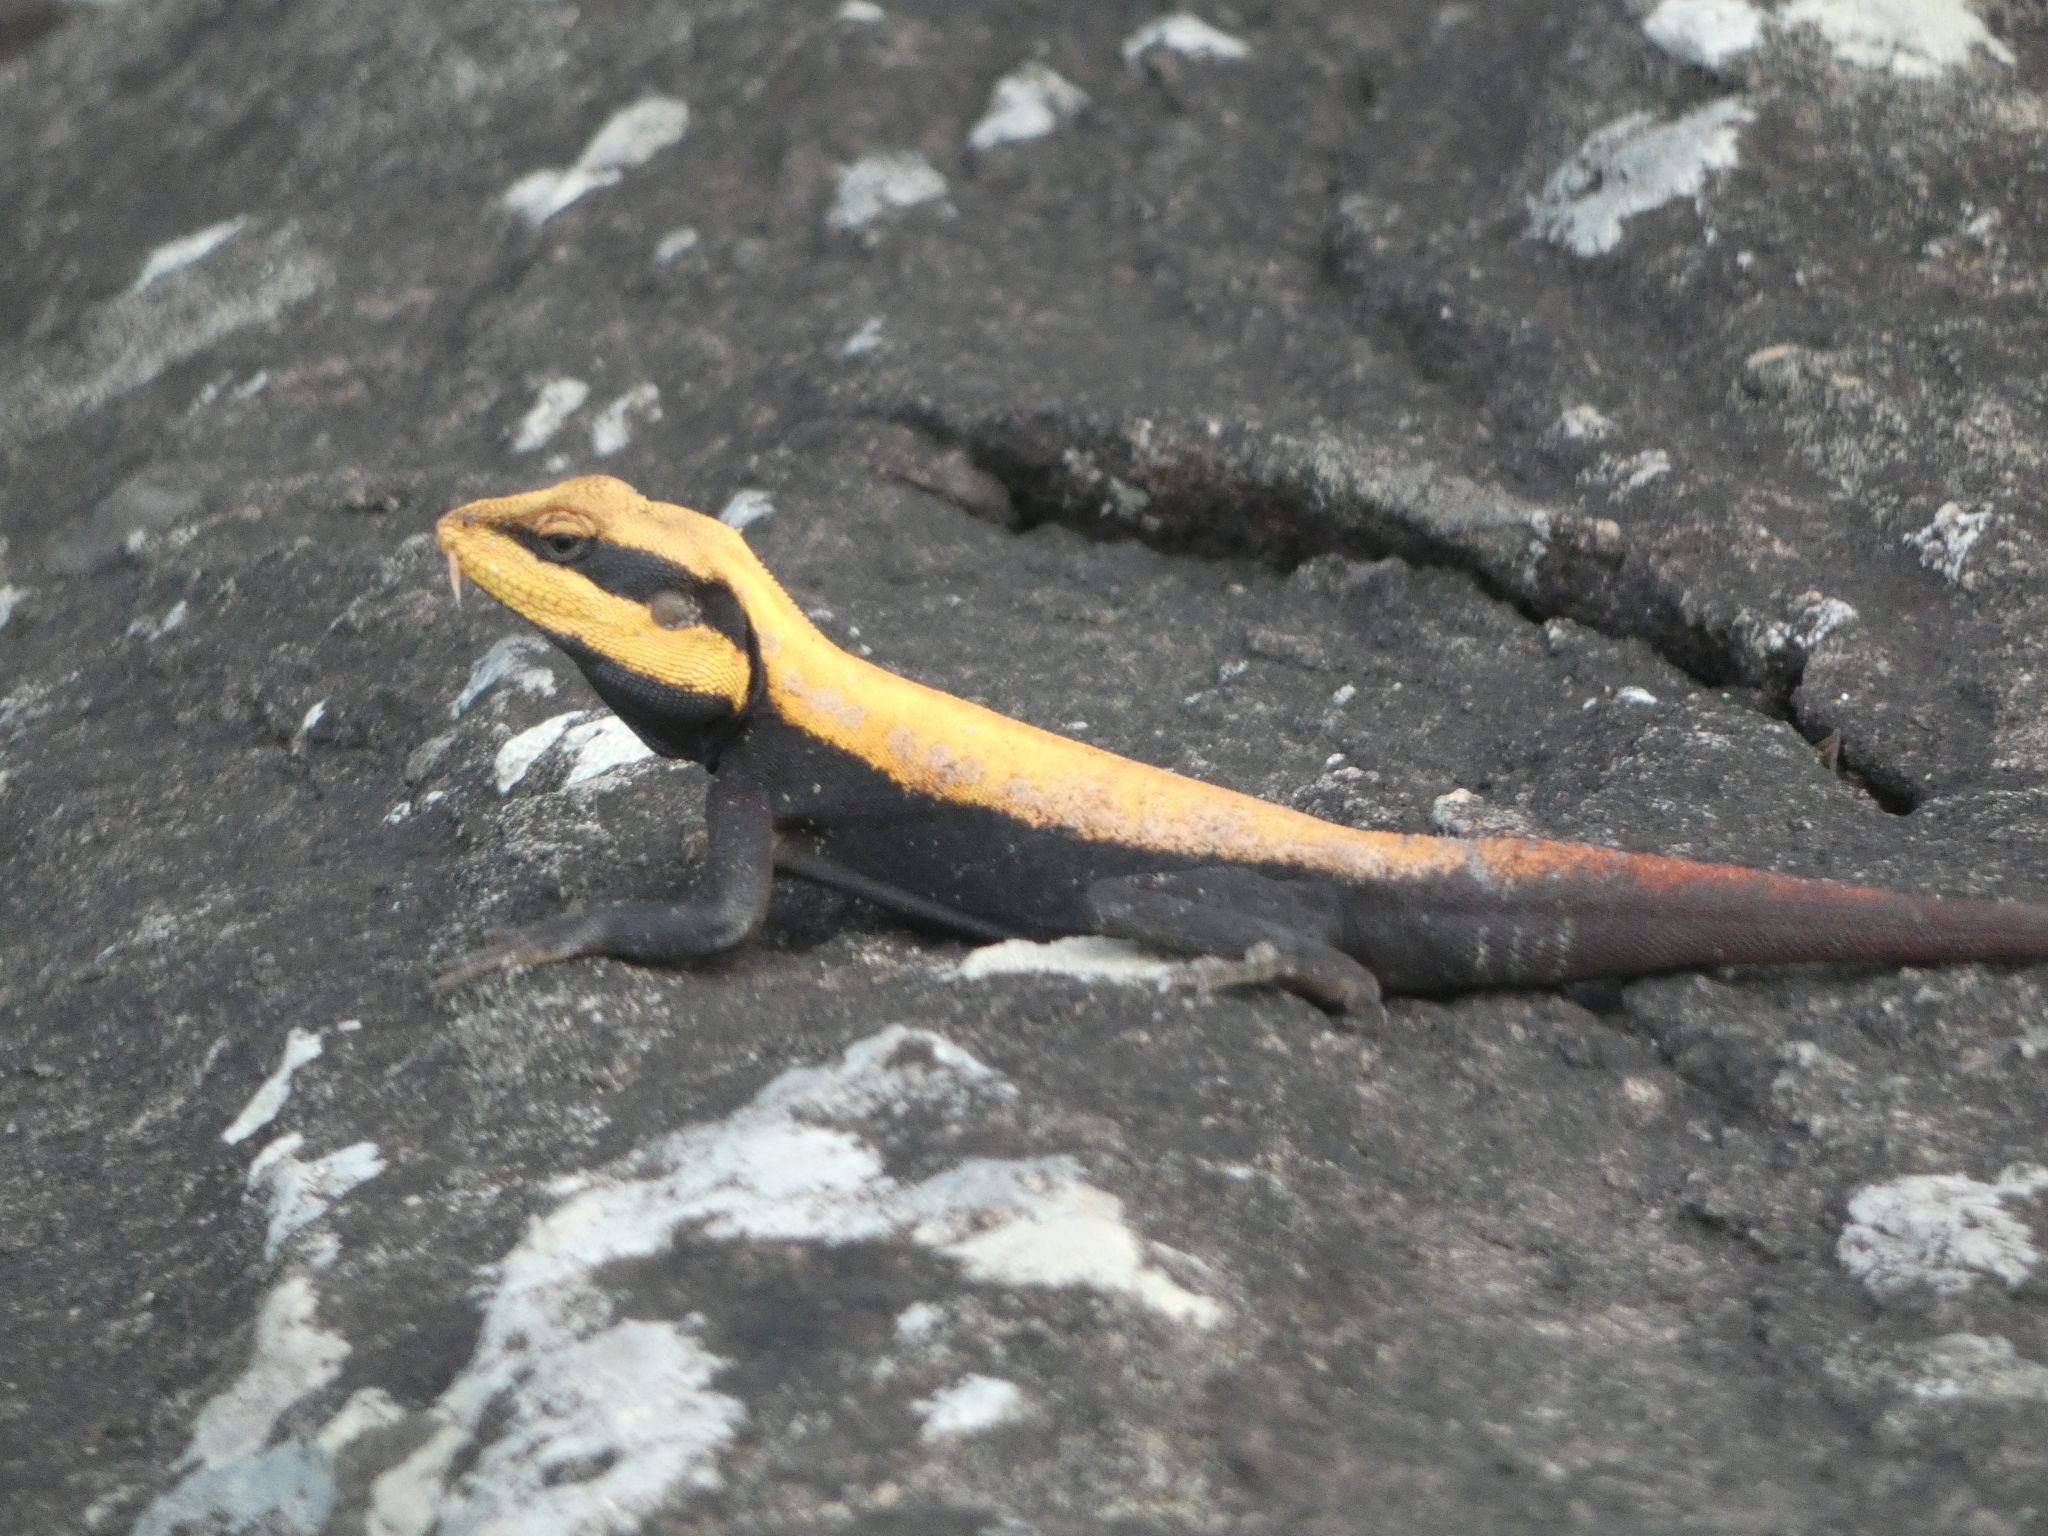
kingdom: Animalia
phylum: Chordata
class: Squamata
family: Agamidae
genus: Psammophilus
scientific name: Psammophilus dorsalis
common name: South indian rock agama
